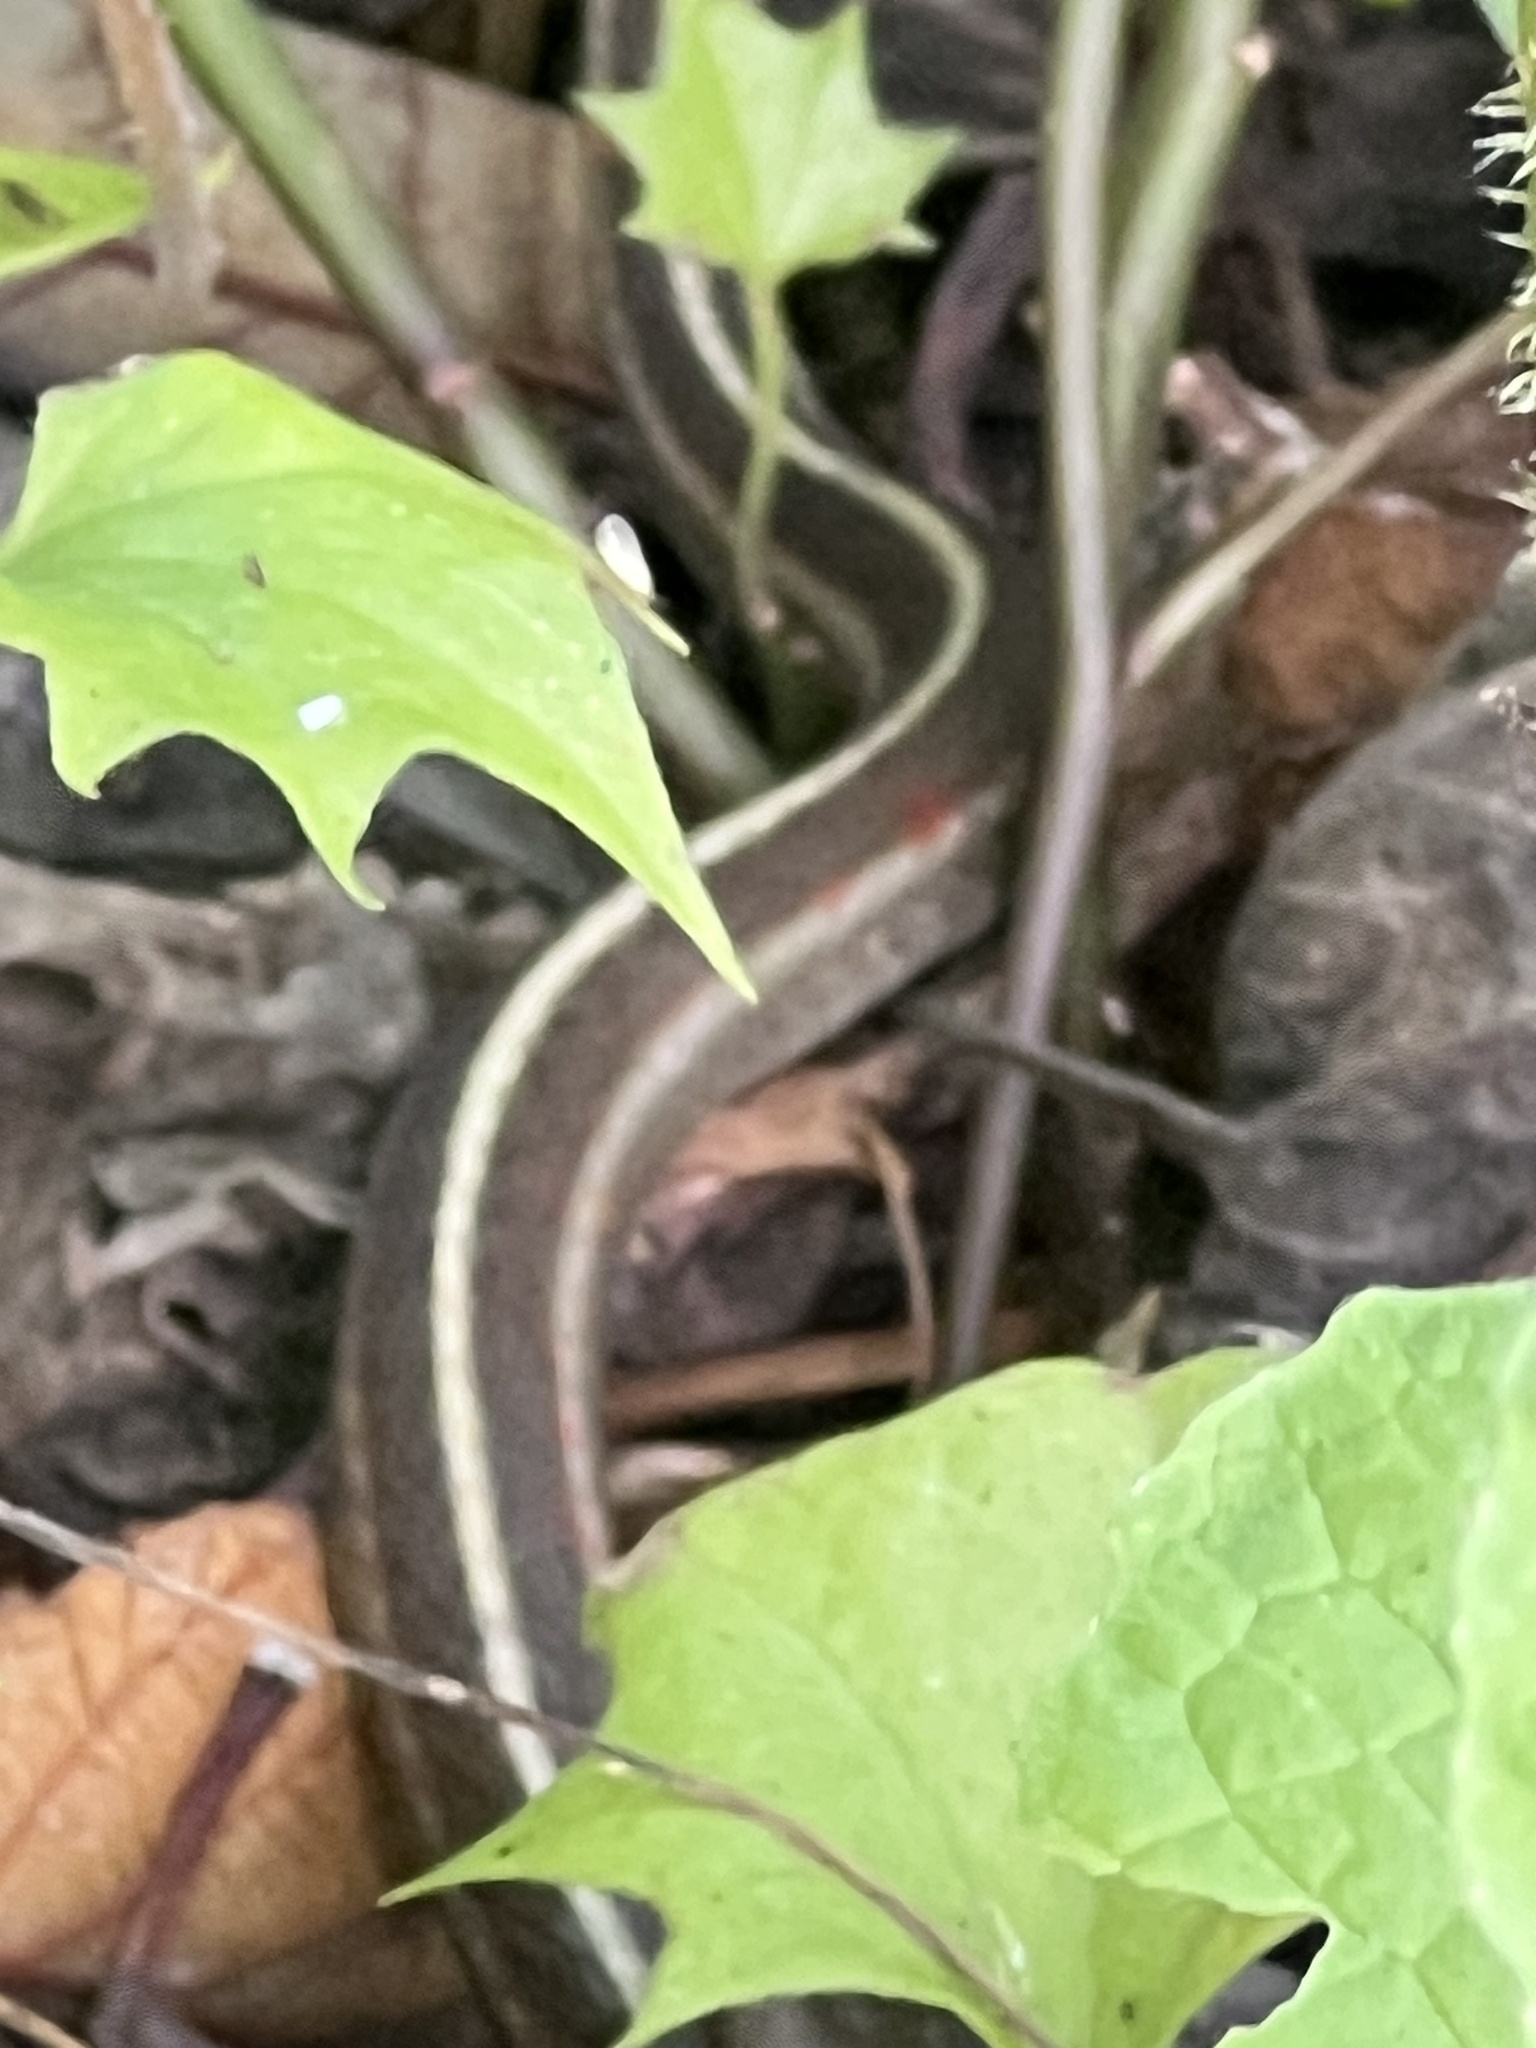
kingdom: Animalia
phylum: Chordata
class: Squamata
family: Colubridae
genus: Thamnophis
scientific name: Thamnophis elegans
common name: Western terrestrial garter snake
